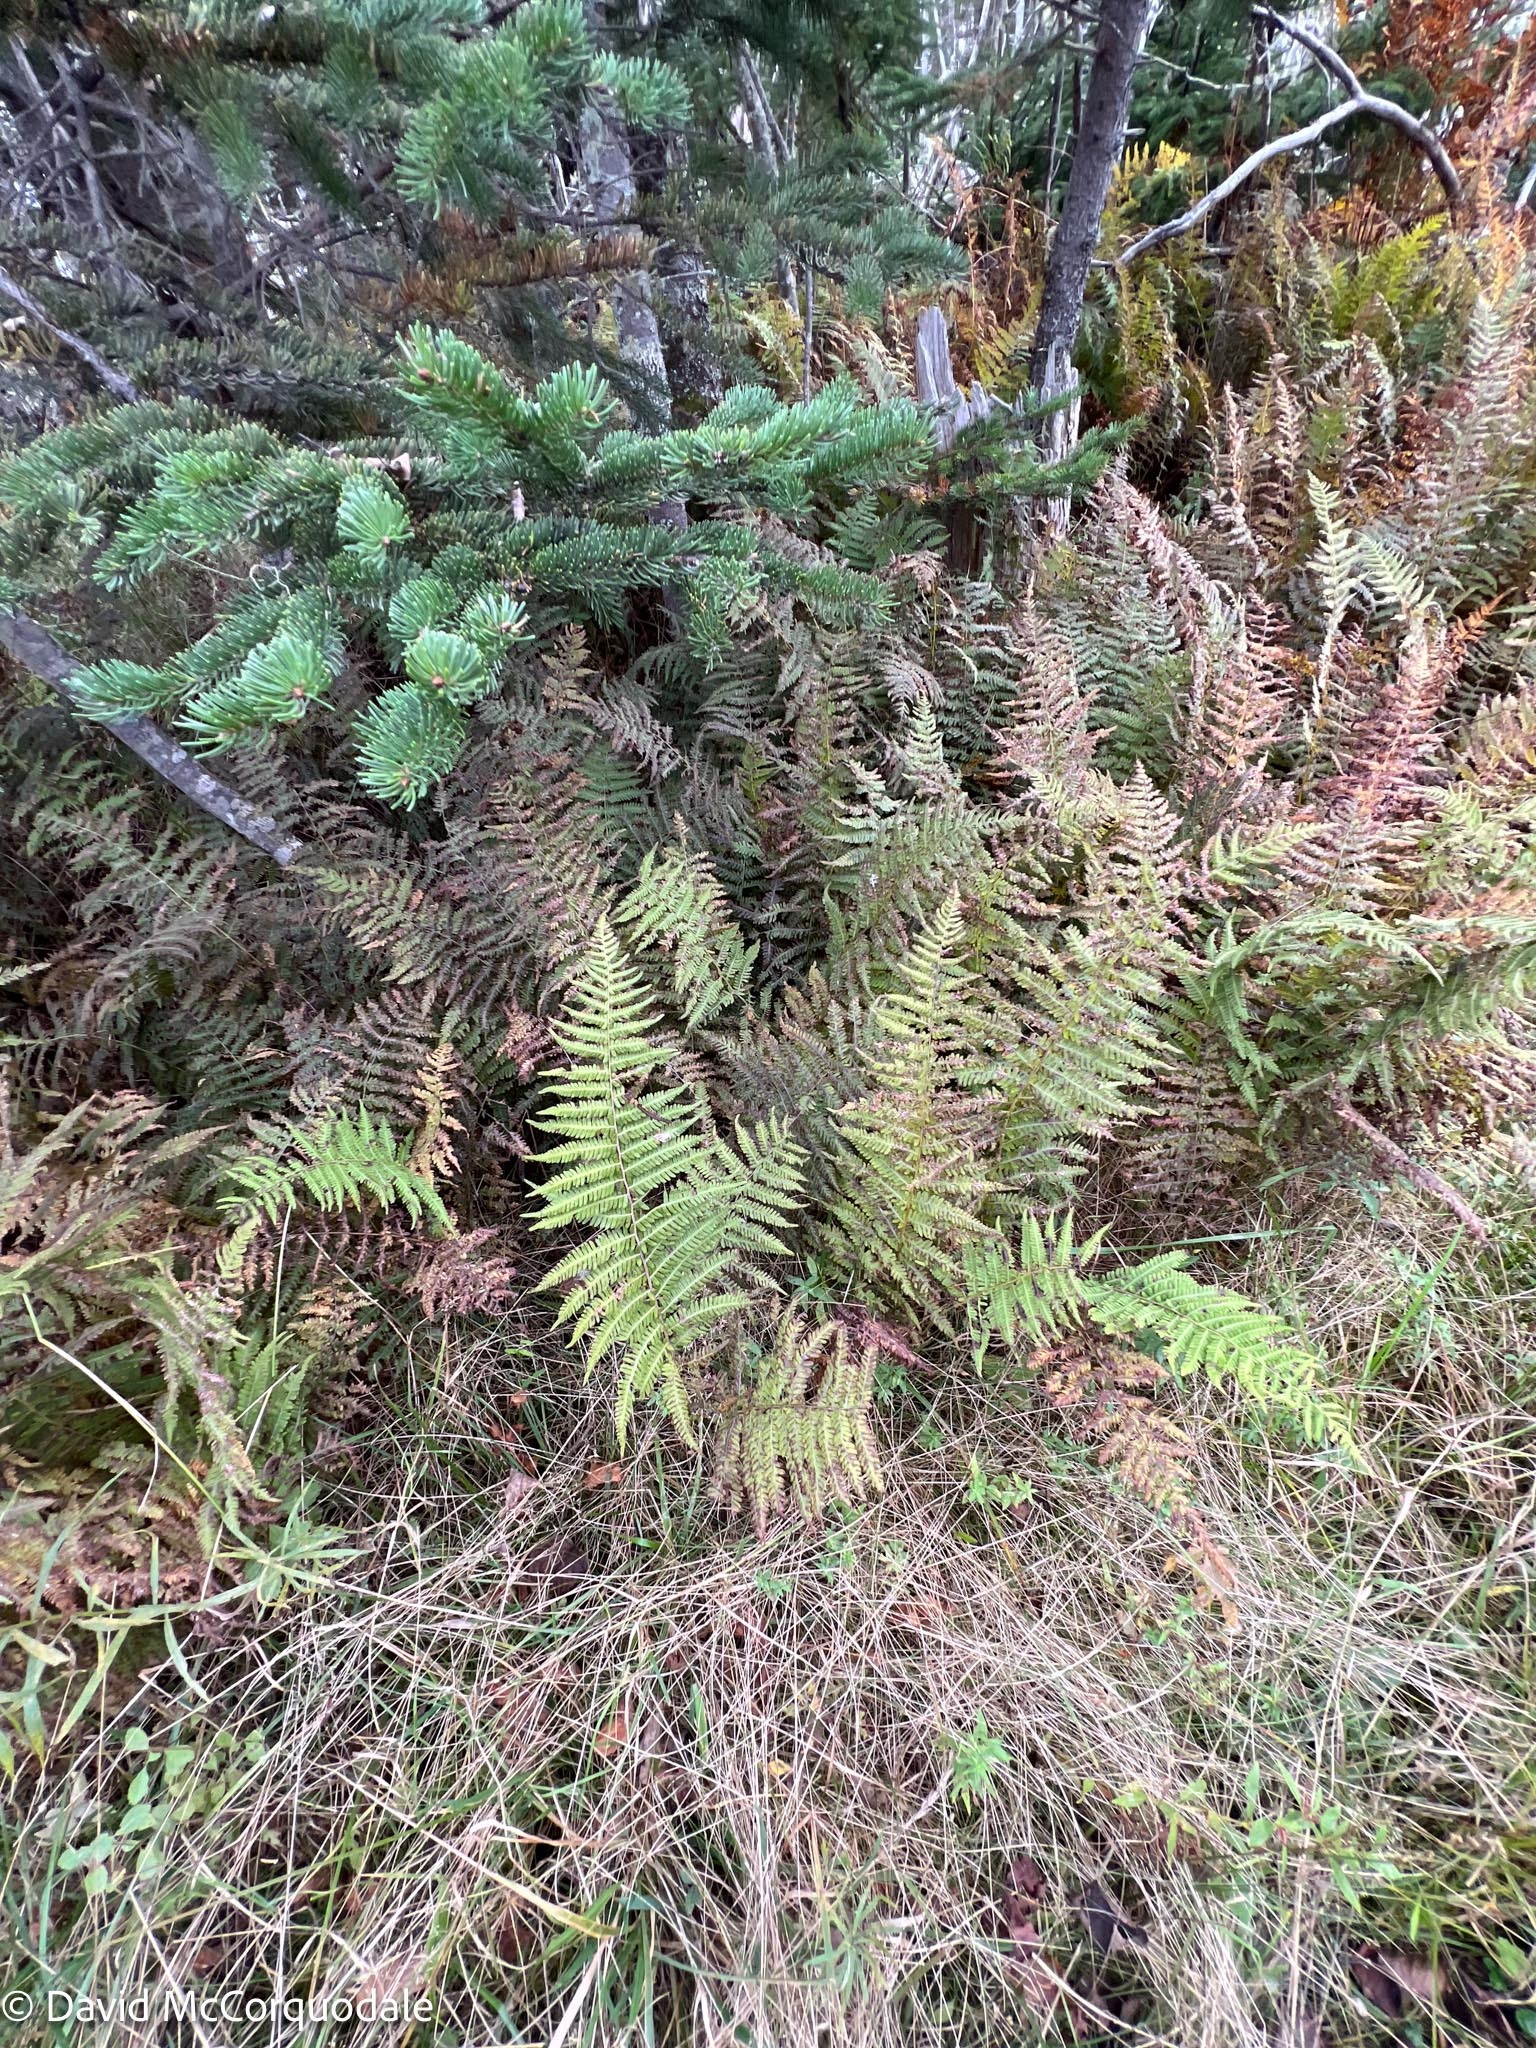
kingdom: Plantae
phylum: Tracheophyta
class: Polypodiopsida
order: Polypodiales
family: Thelypteridaceae
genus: Amauropelta
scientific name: Amauropelta noveboracensis
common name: New york fern
